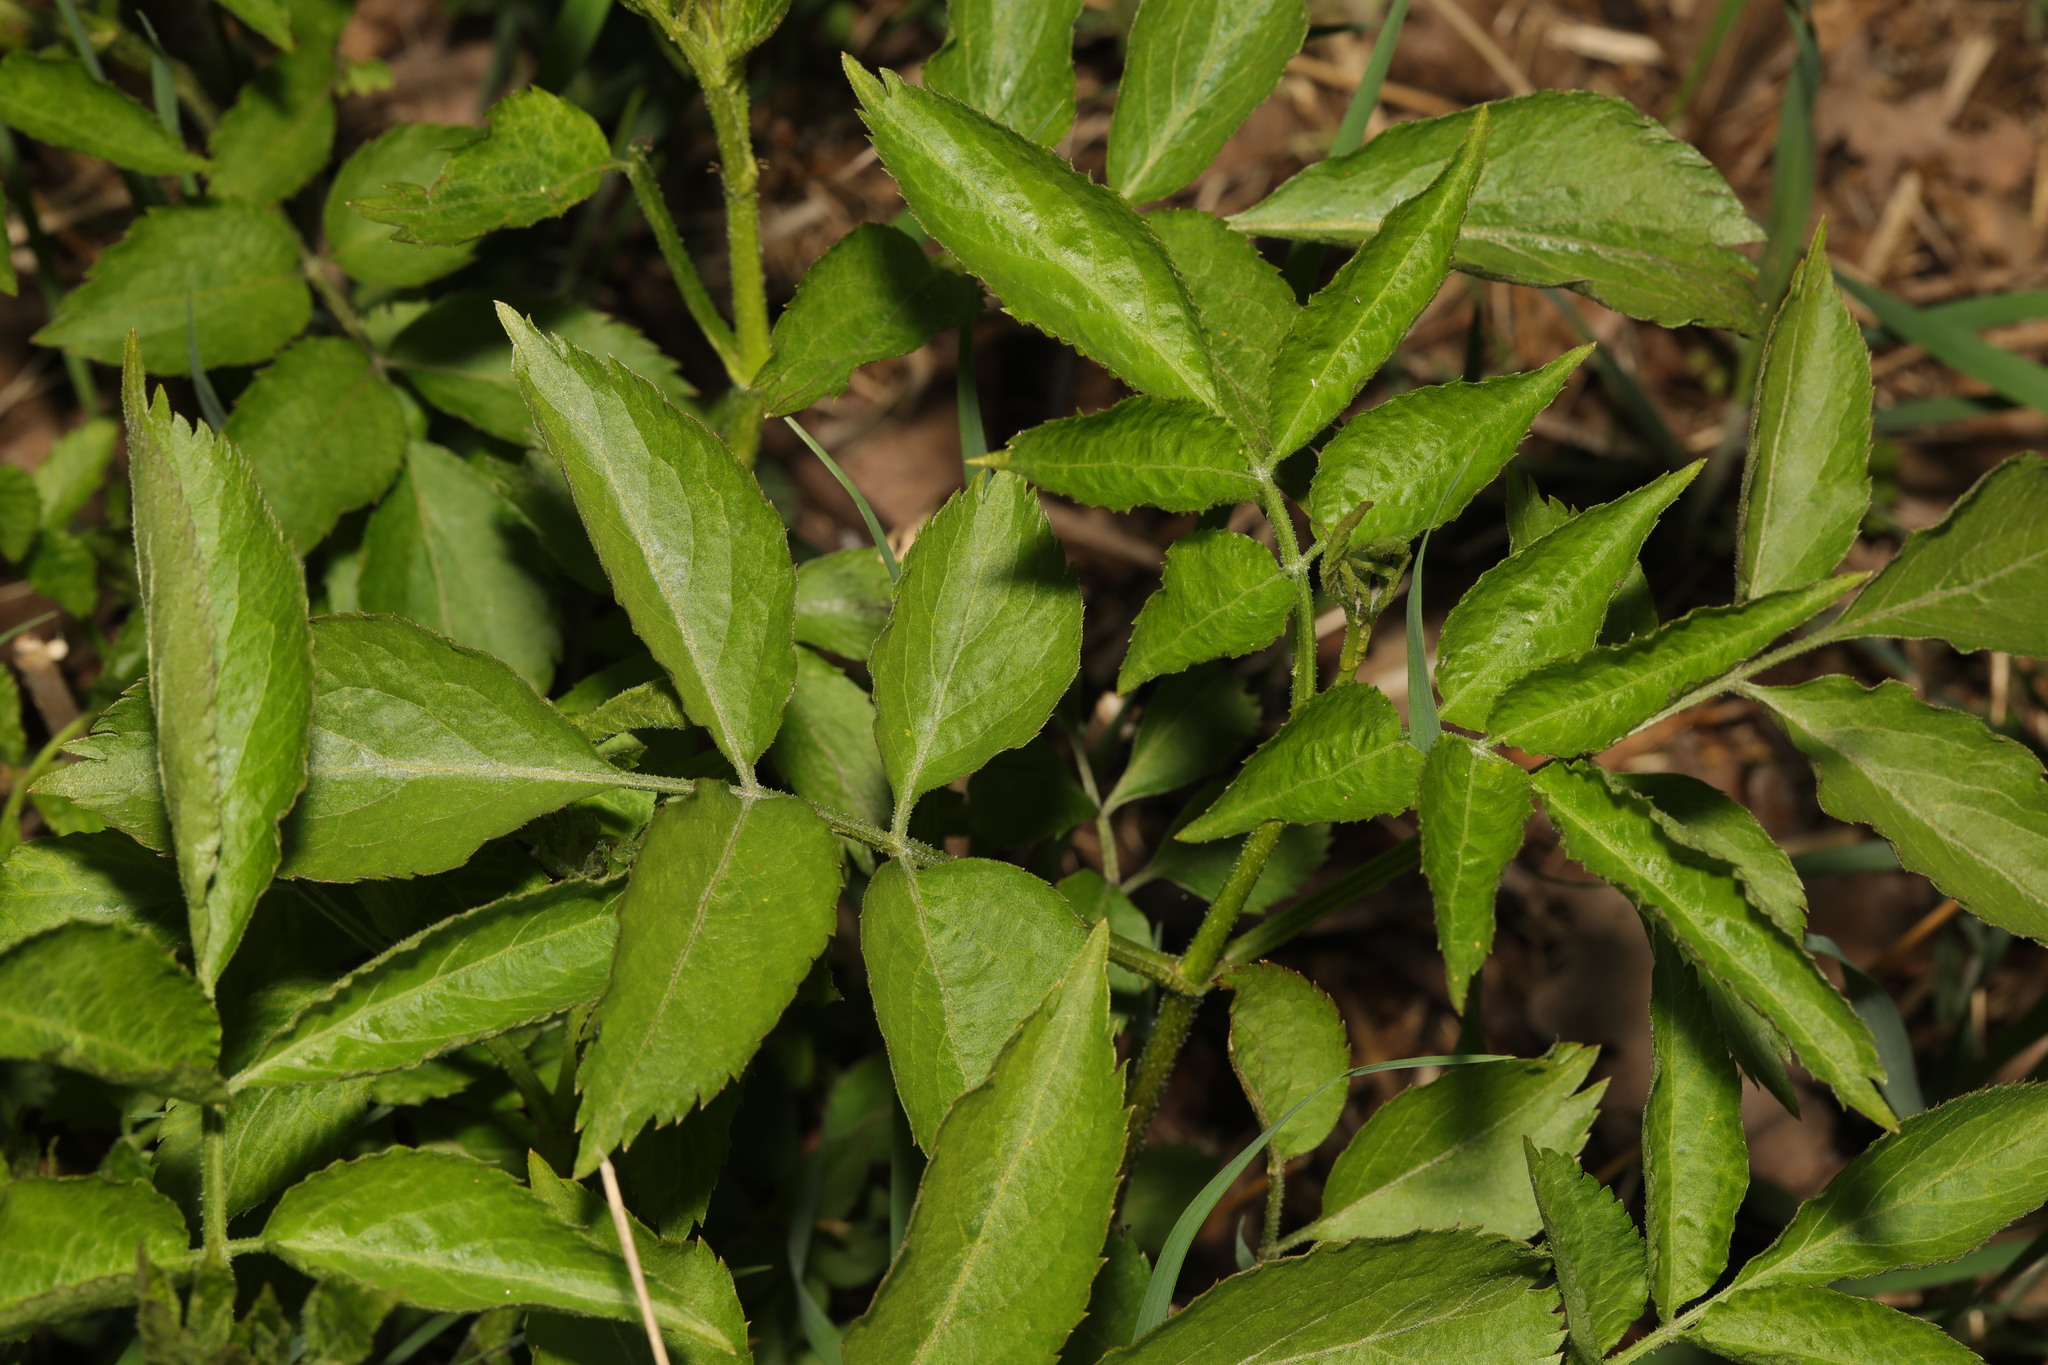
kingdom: Plantae
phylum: Tracheophyta
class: Magnoliopsida
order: Dipsacales
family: Viburnaceae
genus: Sambucus
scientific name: Sambucus nigra
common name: Elder
